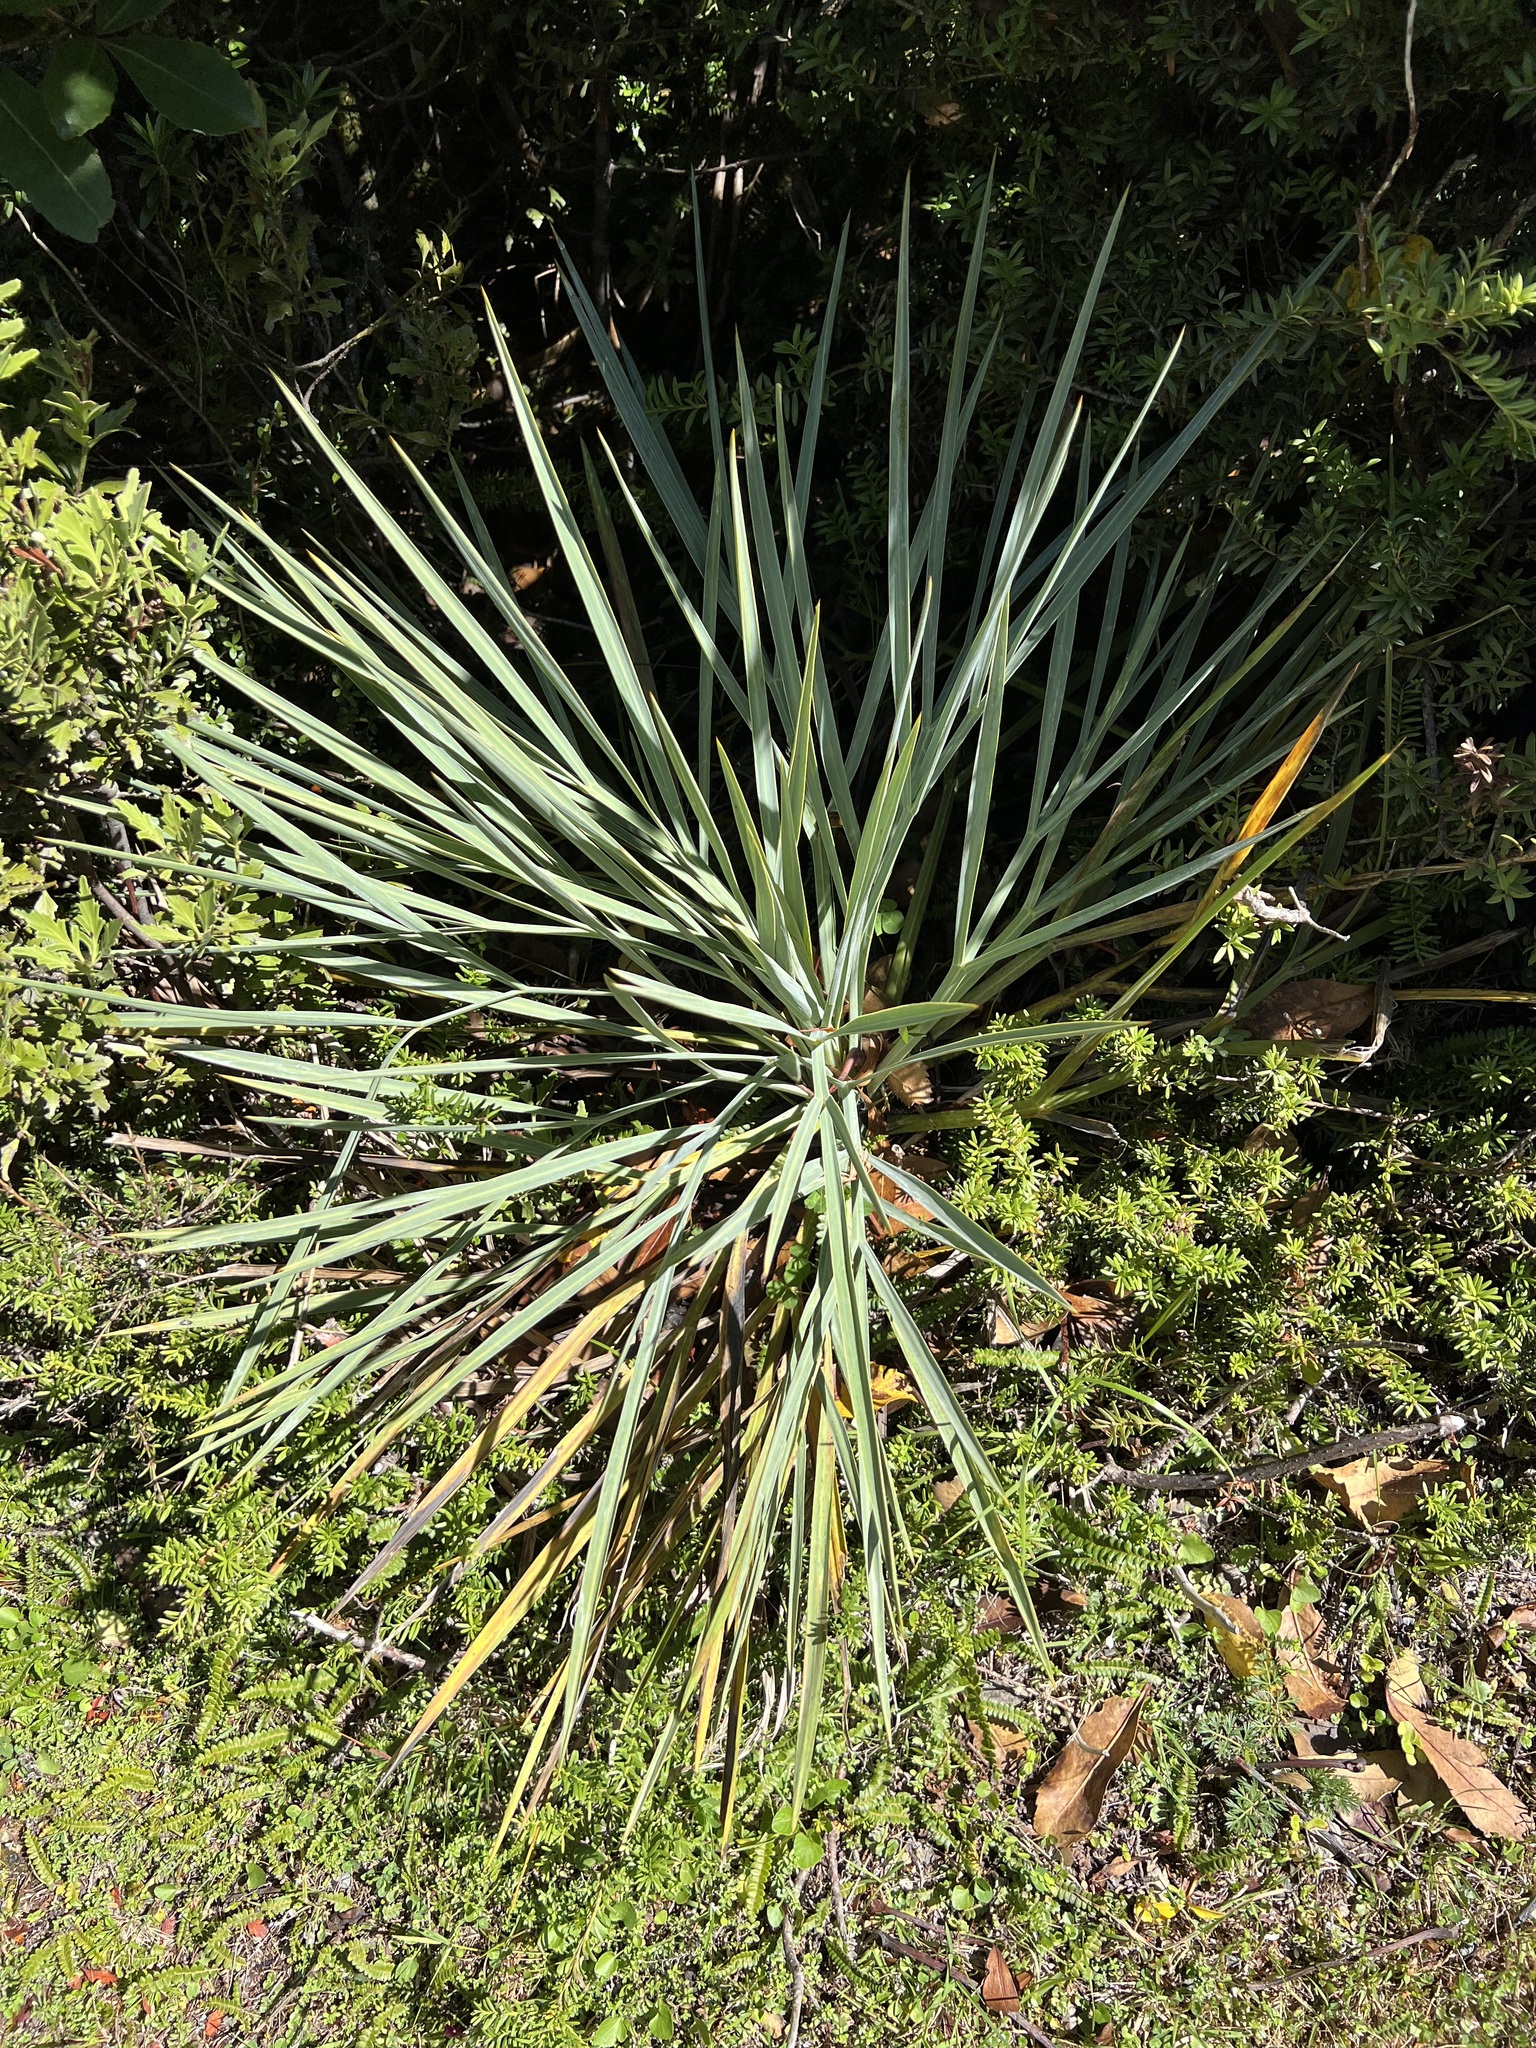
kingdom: Plantae
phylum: Tracheophyta
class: Magnoliopsida
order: Apiales
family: Apiaceae
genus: Aciphylla
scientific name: Aciphylla scott-thomsonii
